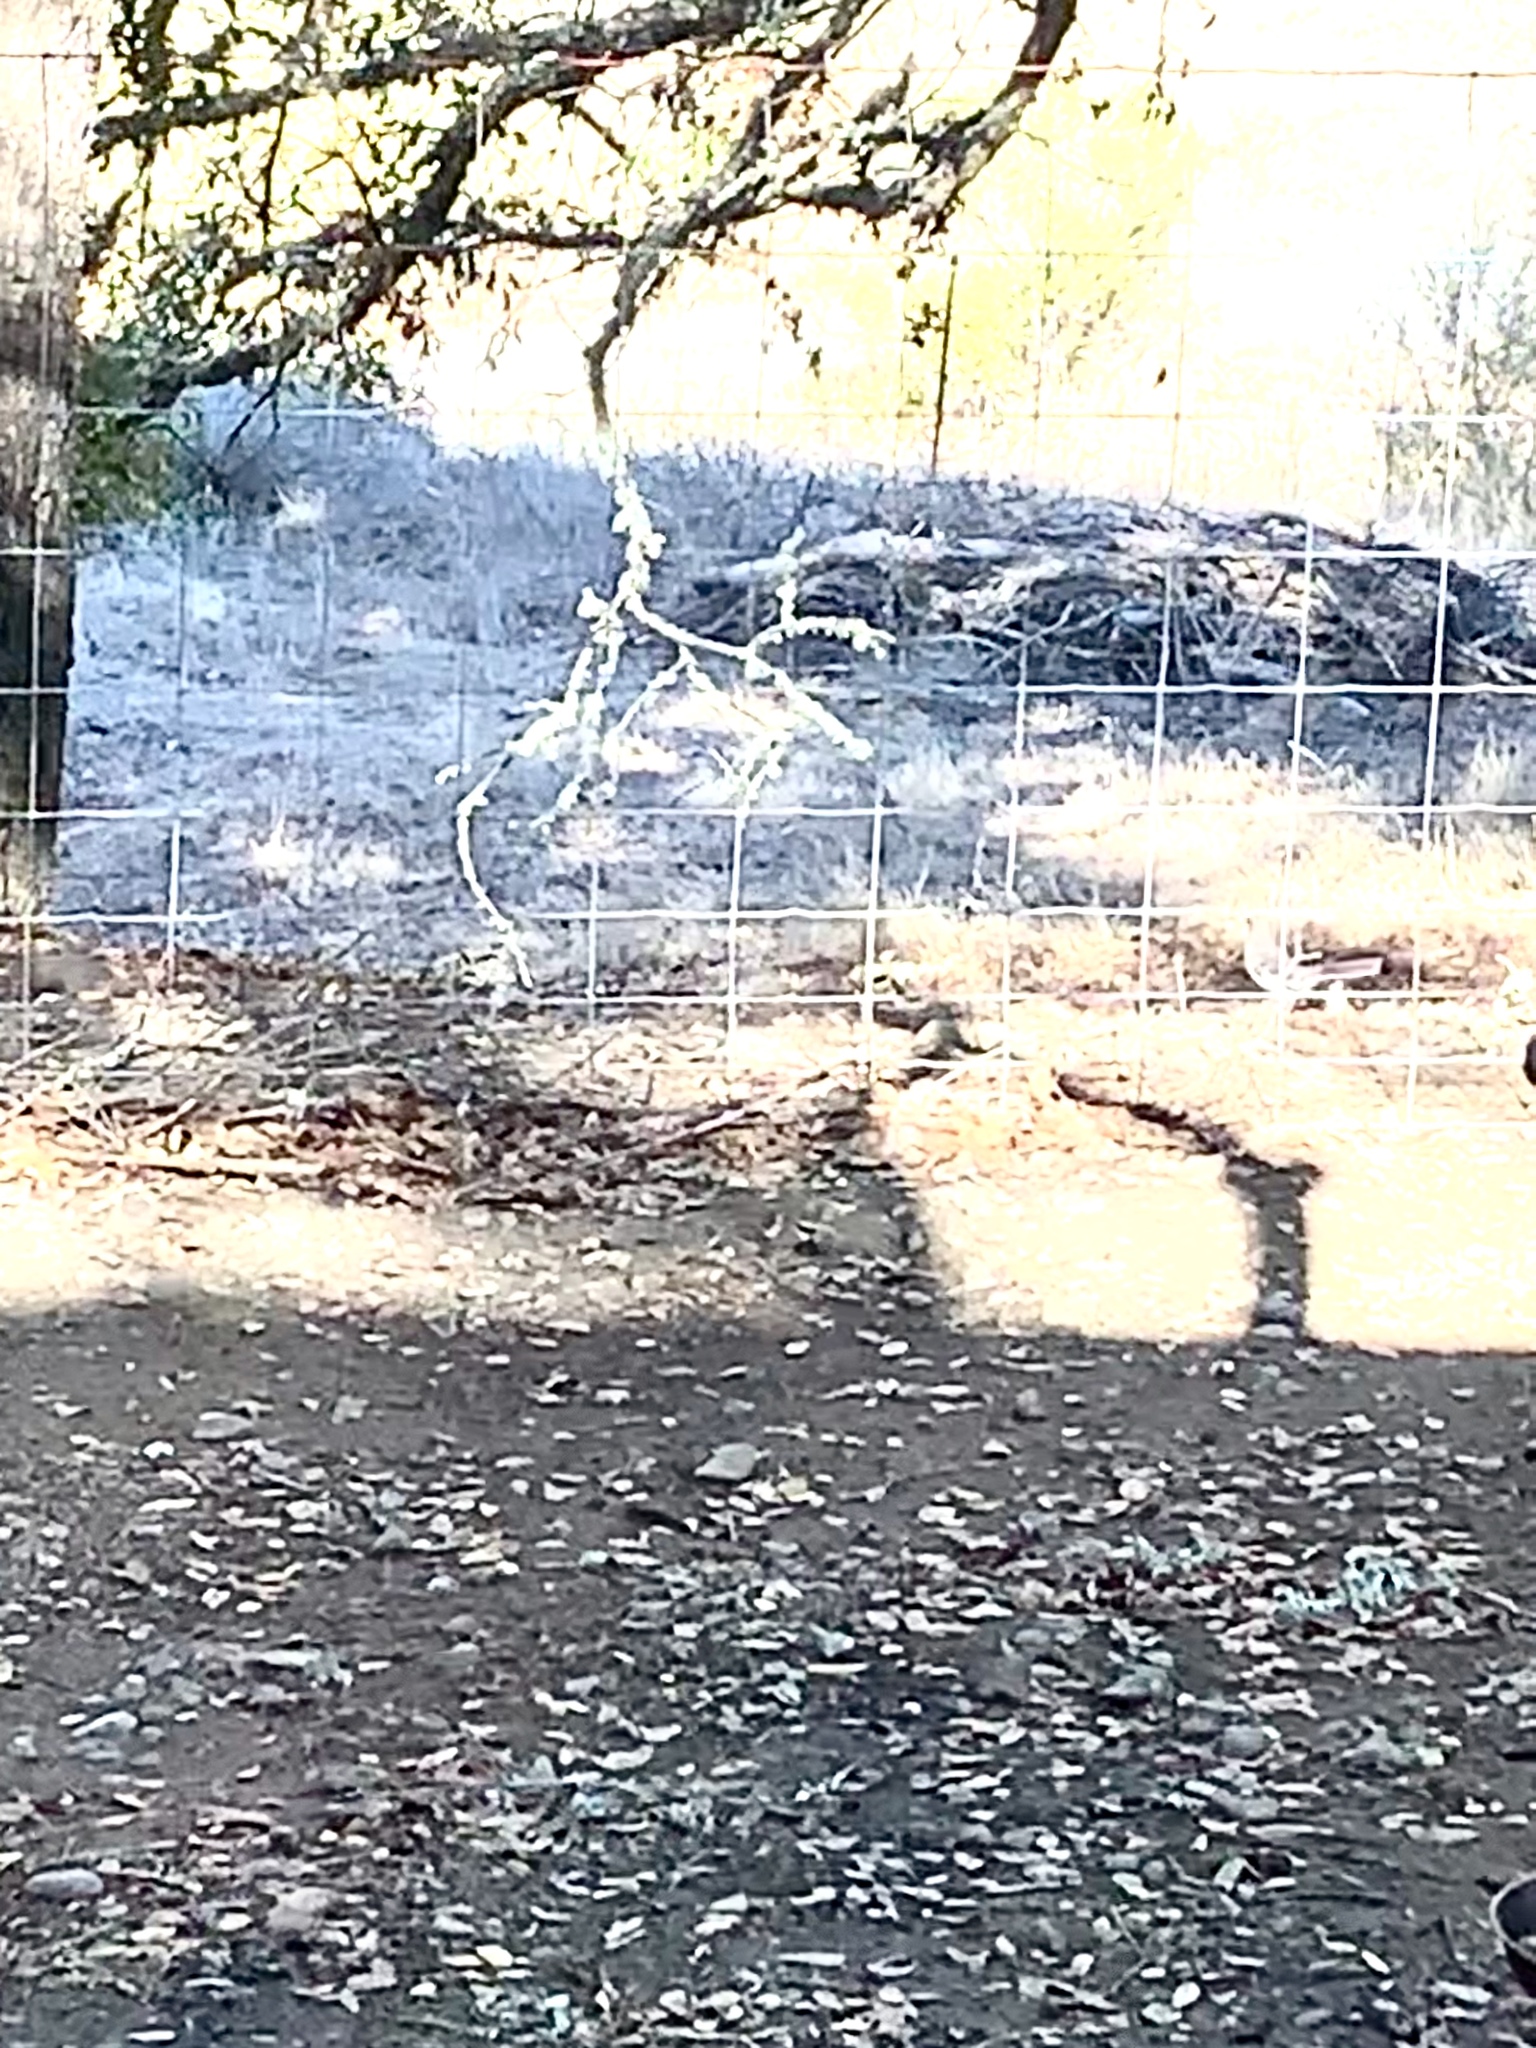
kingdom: Animalia
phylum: Chordata
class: Aves
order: Passeriformes
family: Mimidae
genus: Mimus
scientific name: Mimus polyglottos
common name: Northern mockingbird
